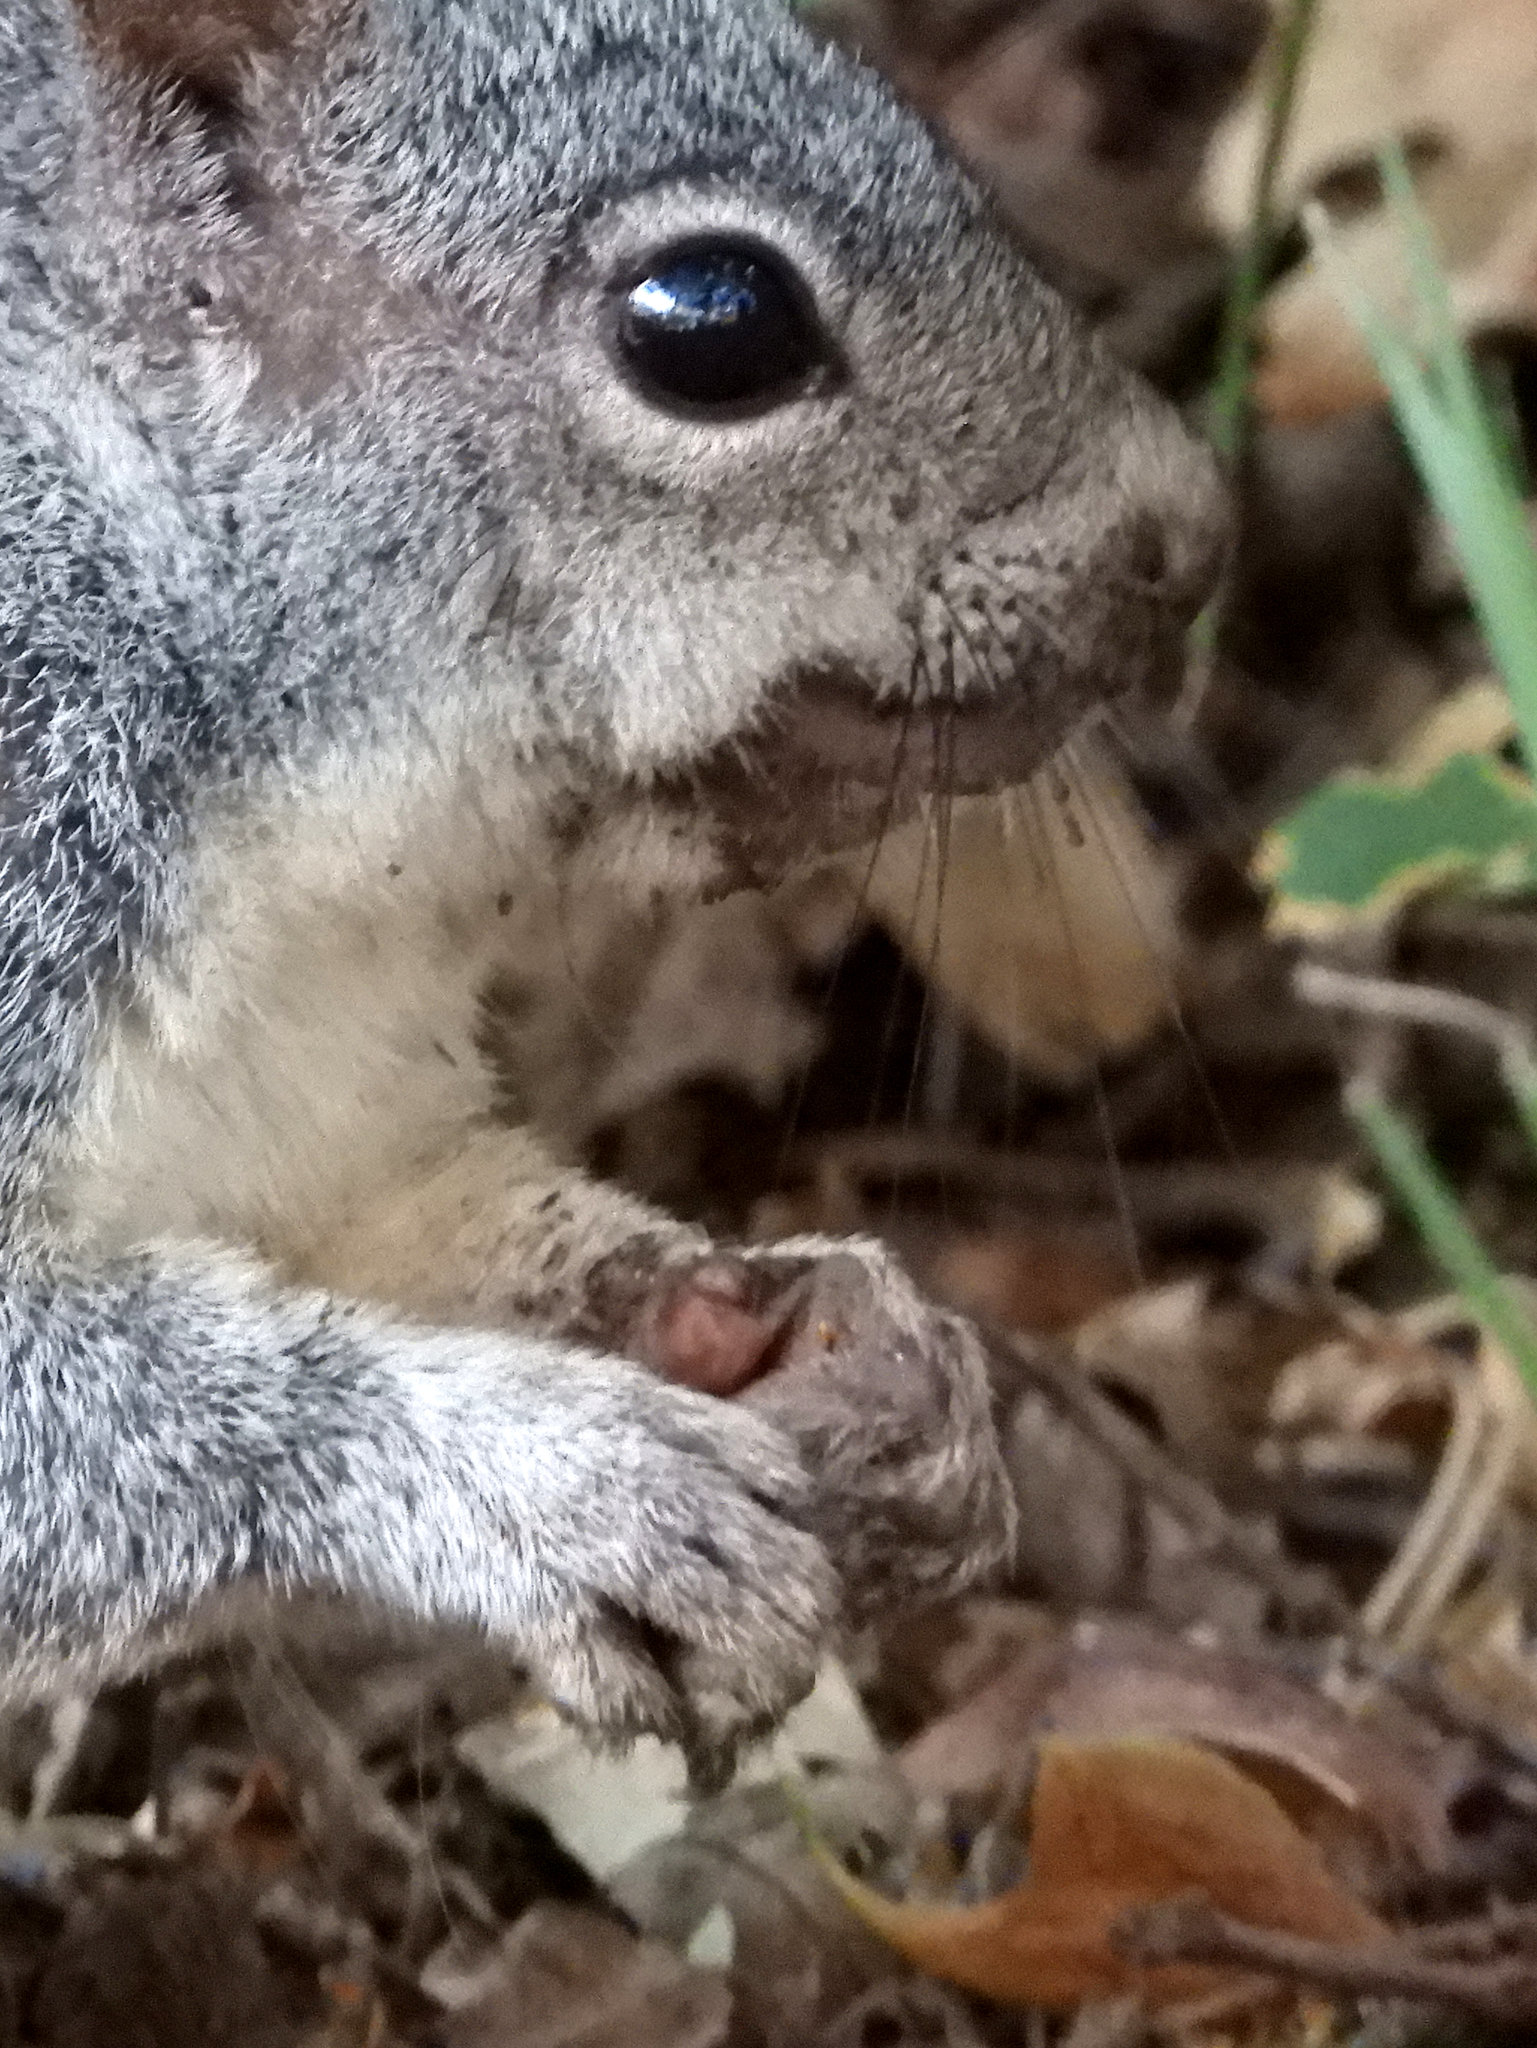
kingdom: Animalia
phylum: Chordata
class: Mammalia
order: Rodentia
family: Sciuridae
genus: Sciurus
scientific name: Sciurus griseus
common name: Western gray squirrel
